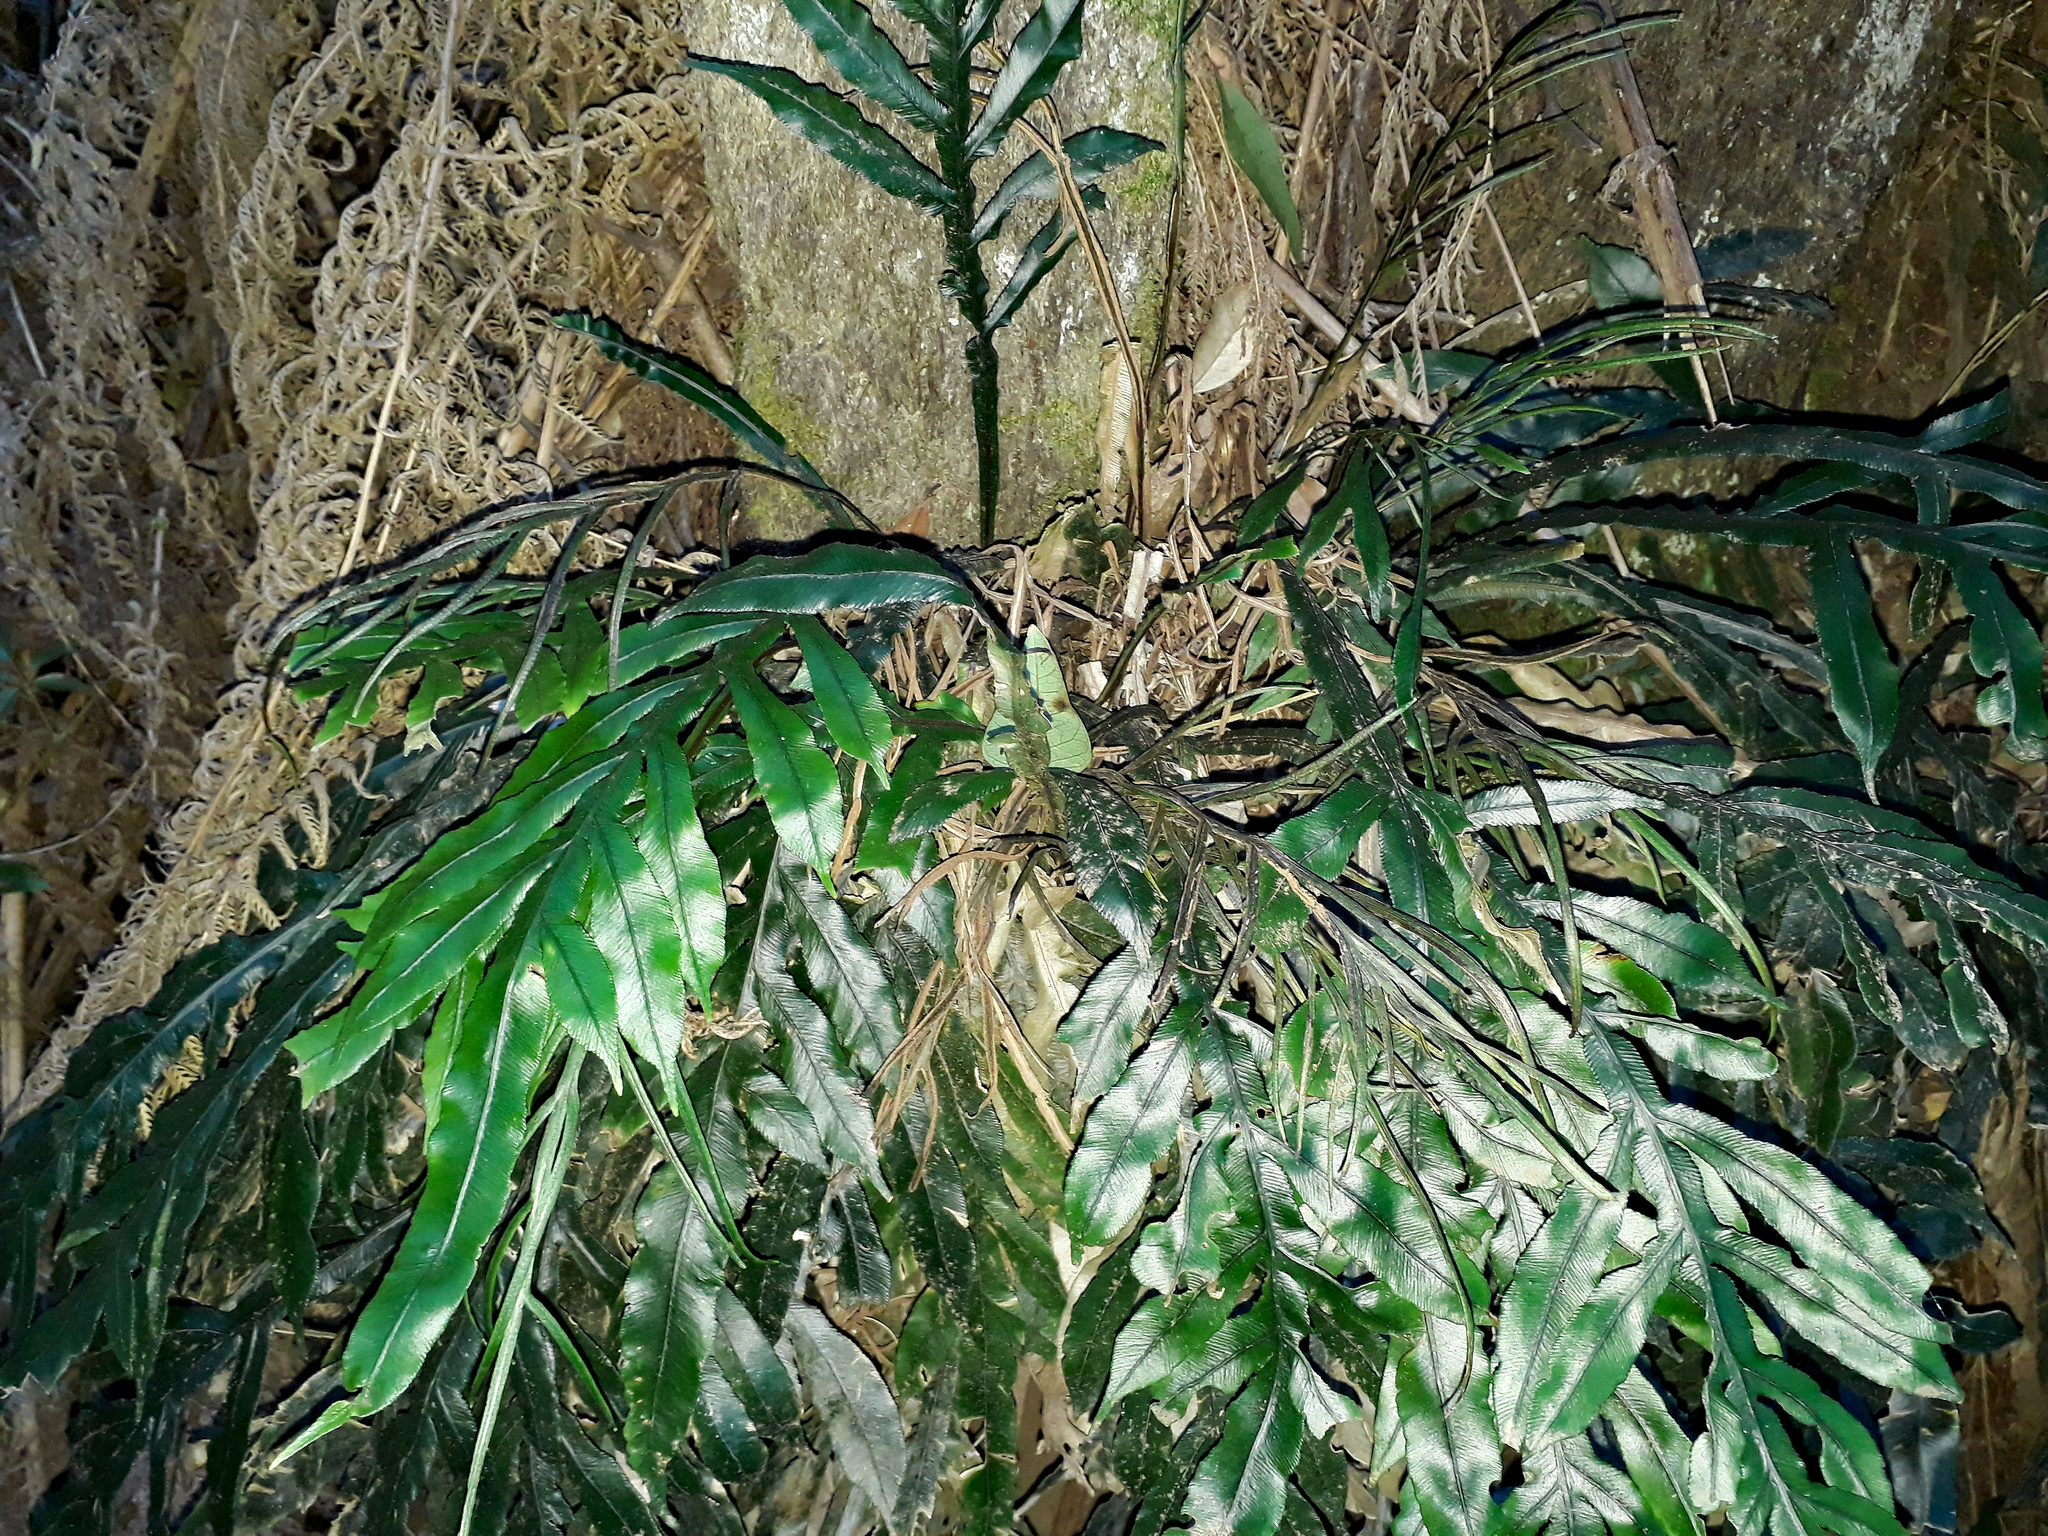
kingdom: Plantae
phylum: Tracheophyta
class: Polypodiopsida
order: Polypodiales
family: Blechnaceae
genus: Austroblechnum
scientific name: Austroblechnum patersonii
